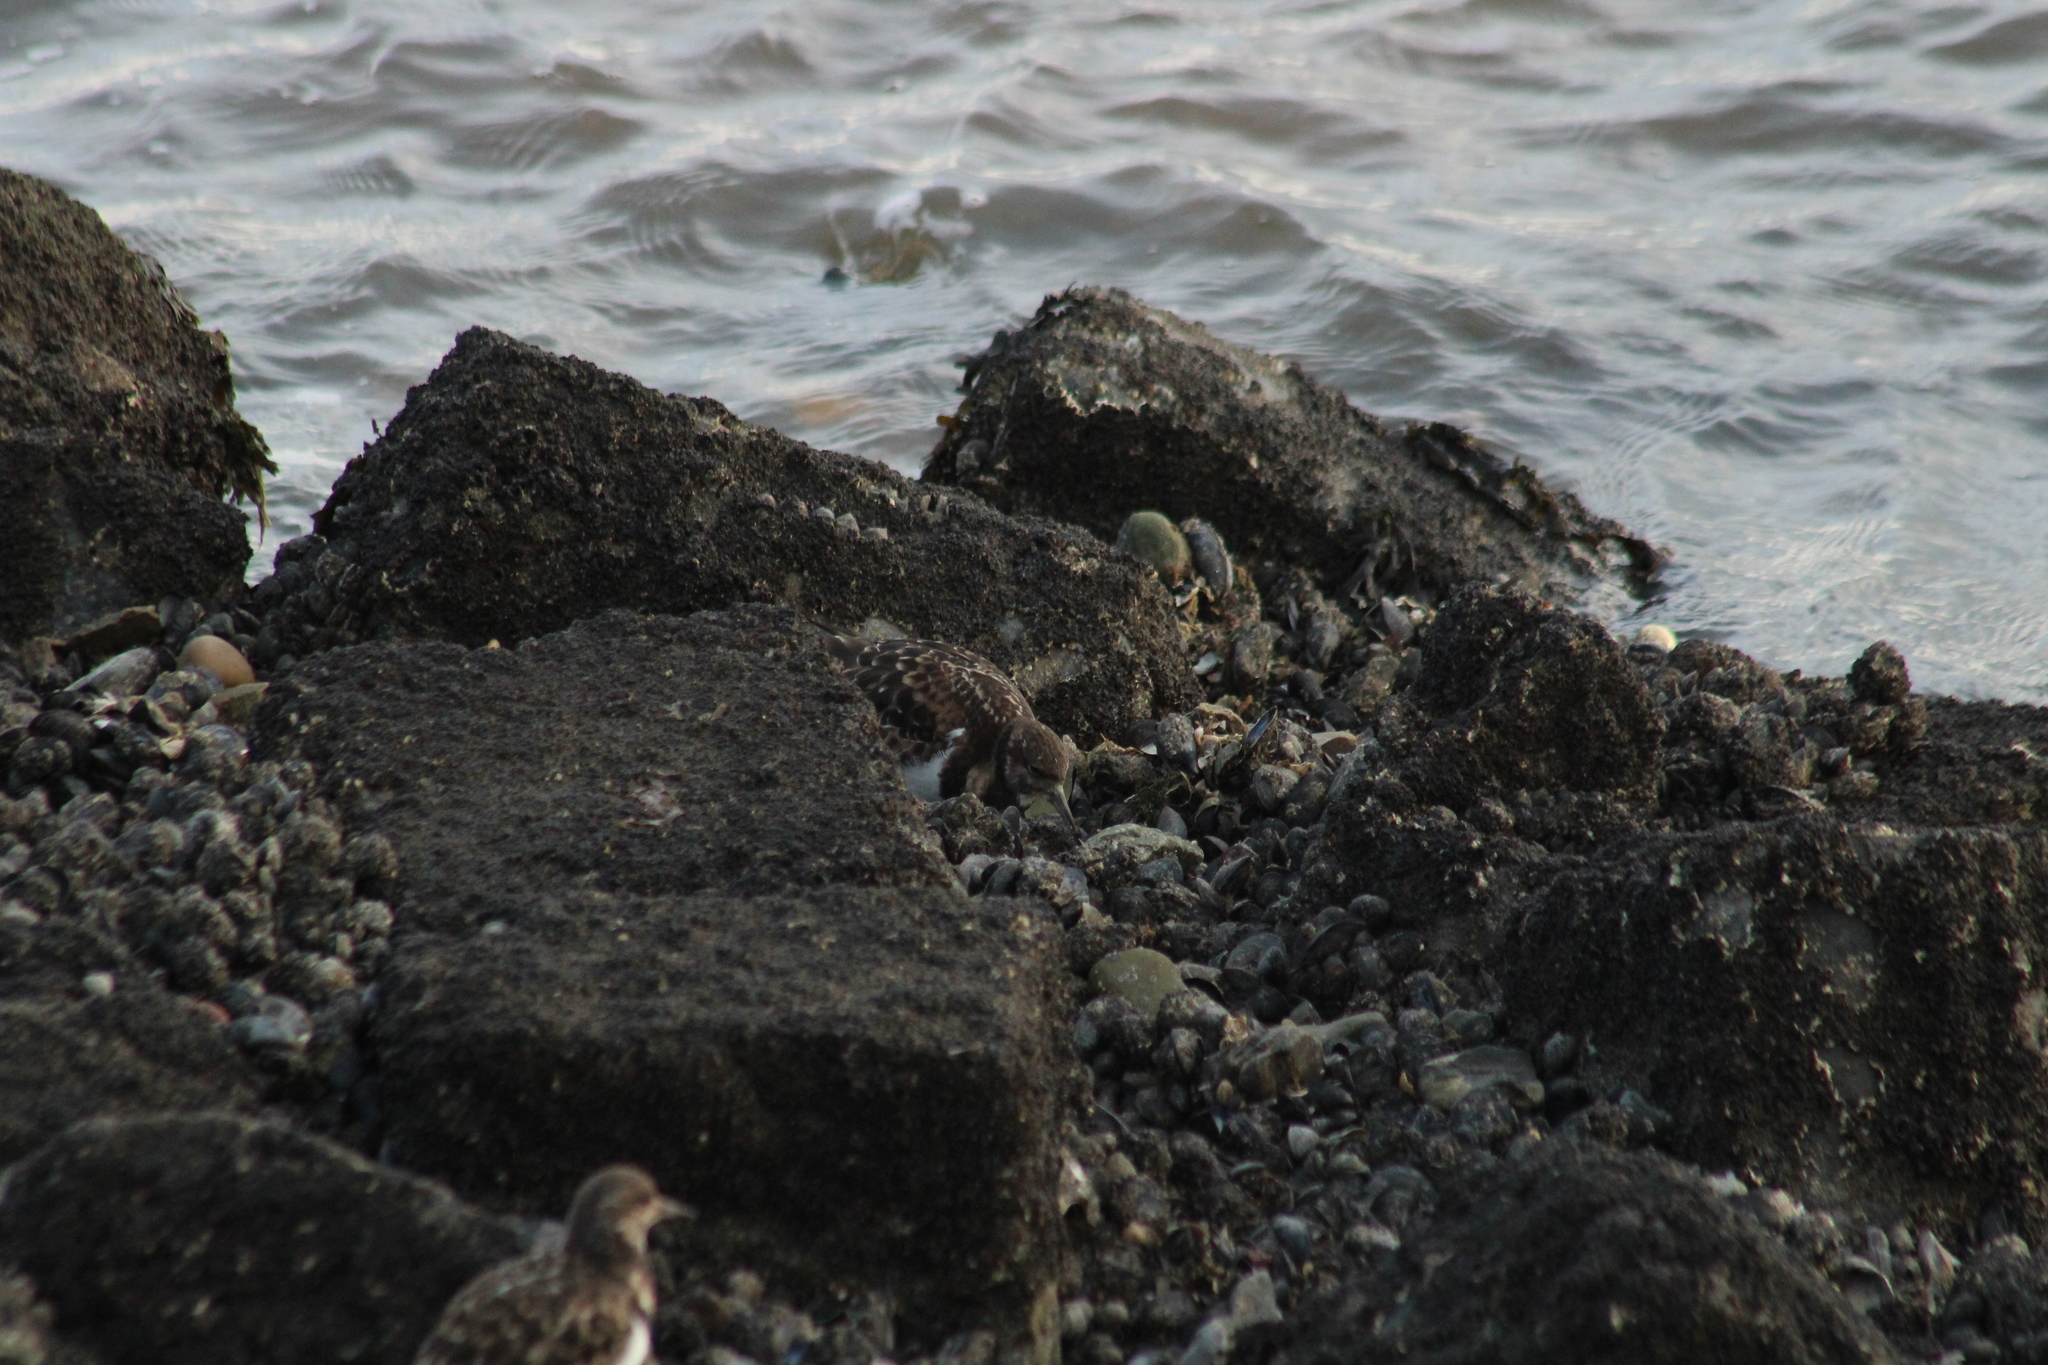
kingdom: Animalia
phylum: Chordata
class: Aves
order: Charadriiformes
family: Scolopacidae
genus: Arenaria
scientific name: Arenaria interpres
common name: Ruddy turnstone
